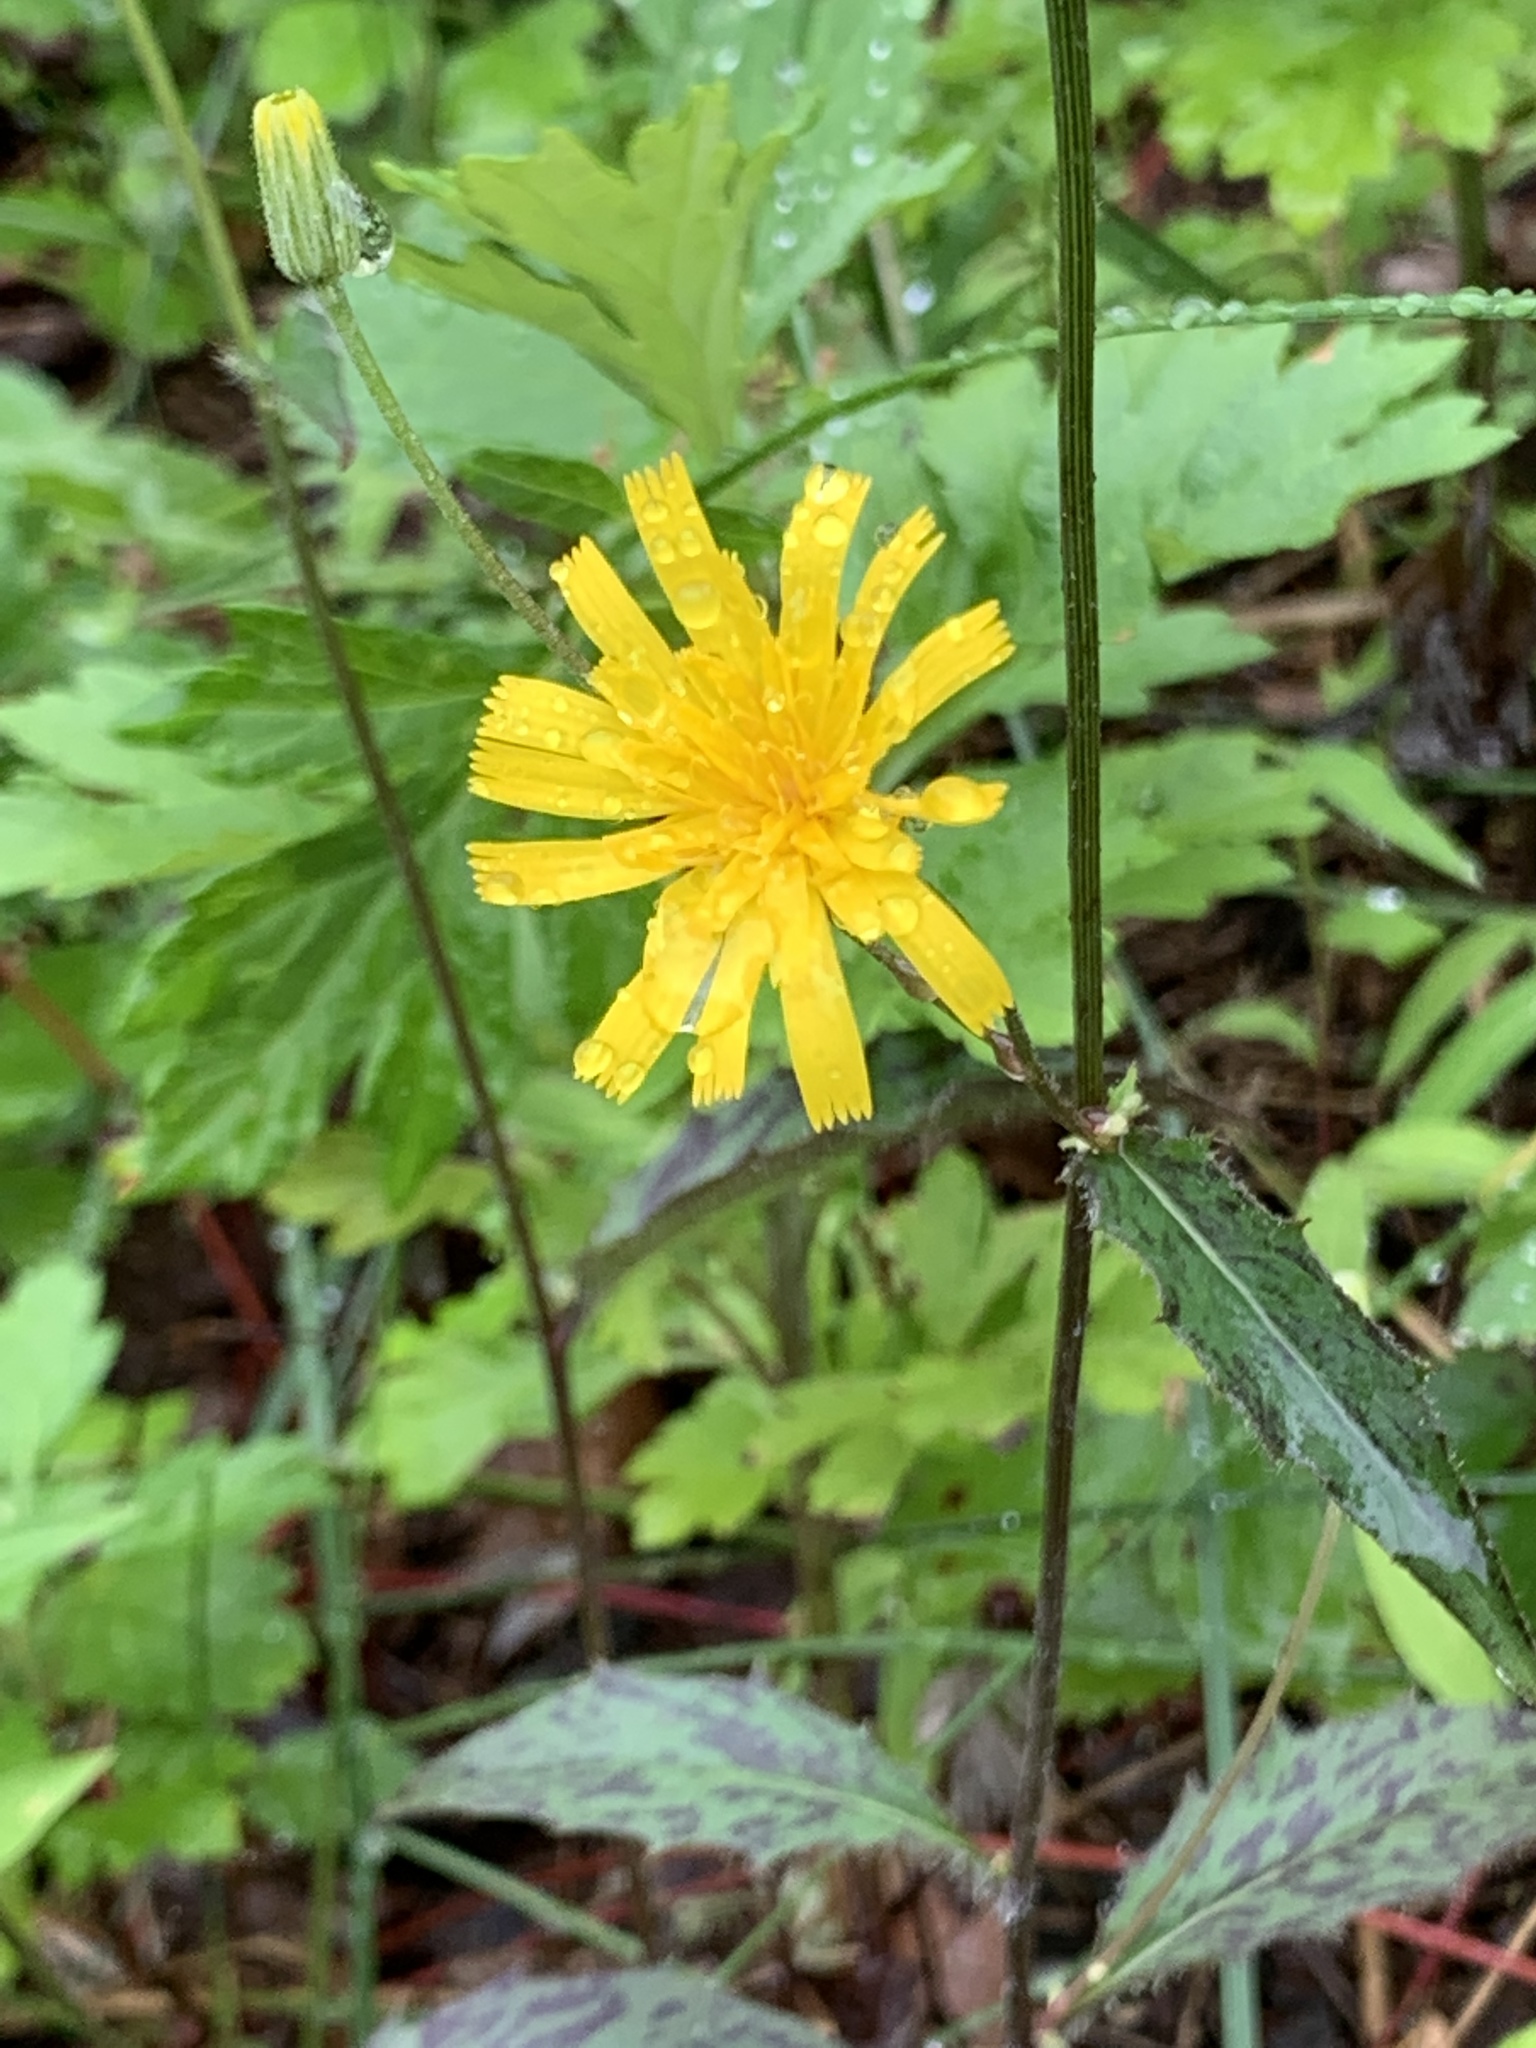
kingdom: Plantae
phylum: Tracheophyta
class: Magnoliopsida
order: Asterales
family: Asteraceae
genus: Hieracium
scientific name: Hieracium maculatum
